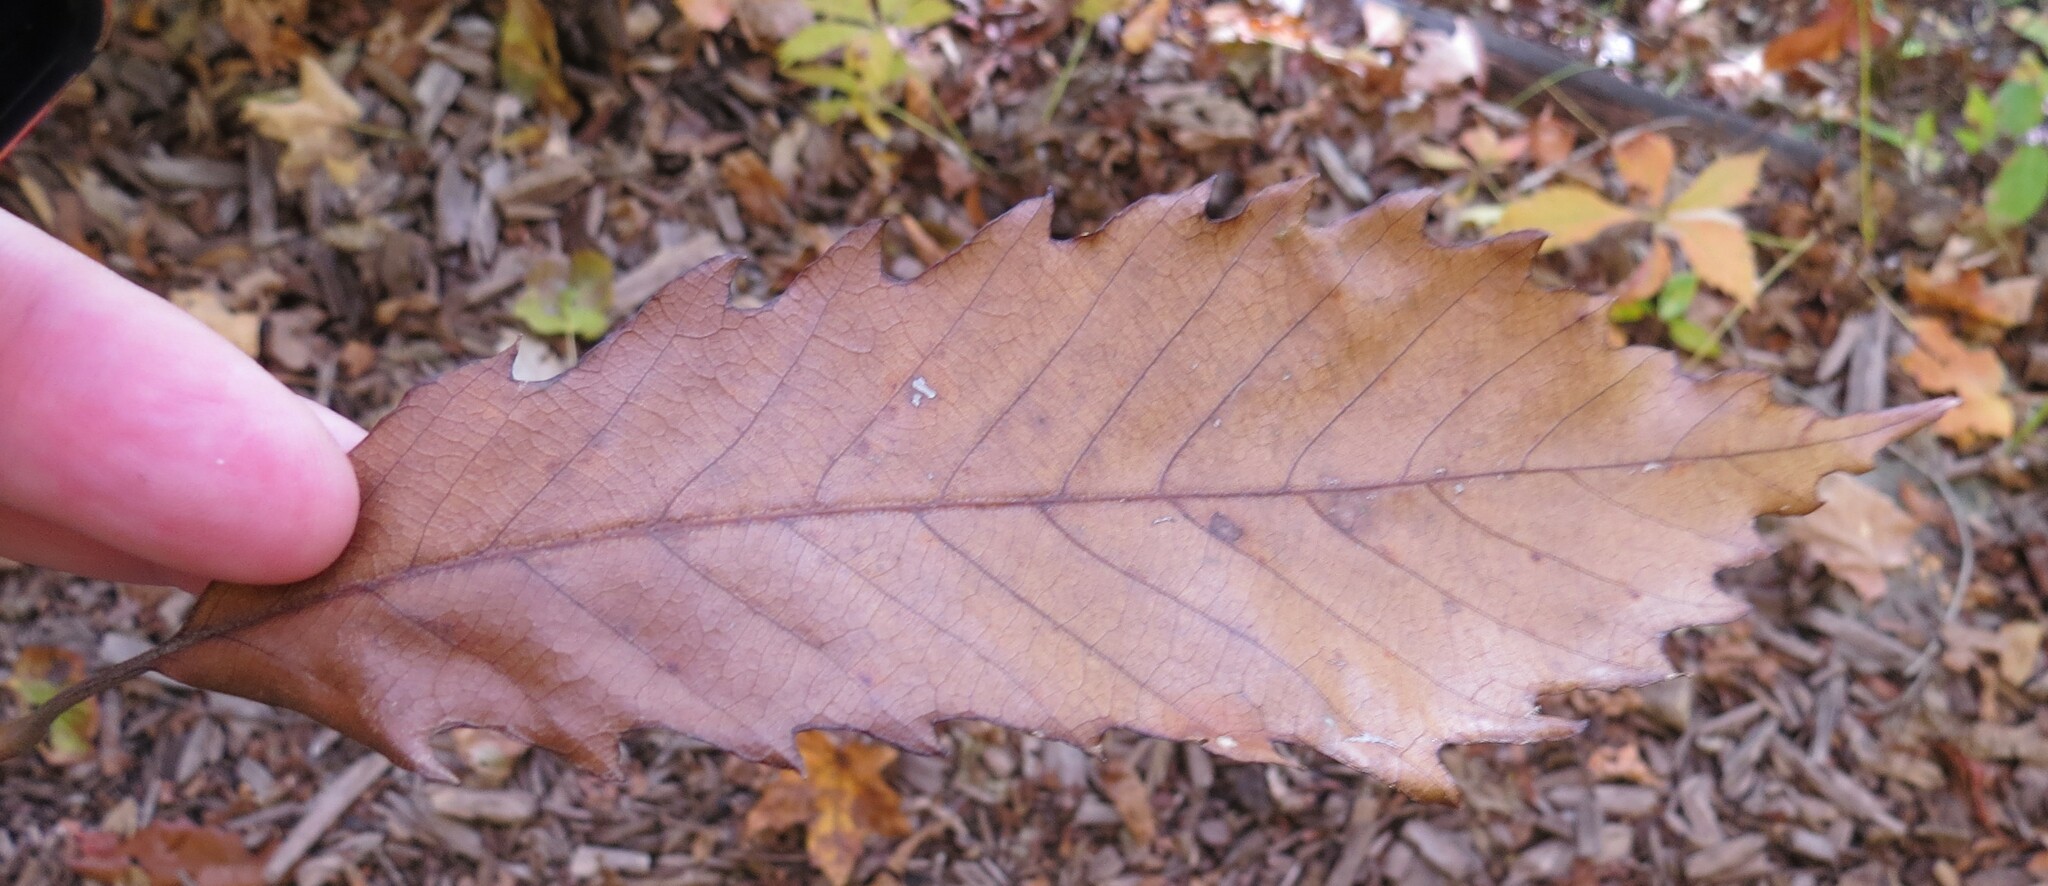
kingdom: Plantae
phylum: Tracheophyta
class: Magnoliopsida
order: Fagales
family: Fagaceae
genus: Quercus
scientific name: Quercus muehlenbergii
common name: Chinkapin oak
